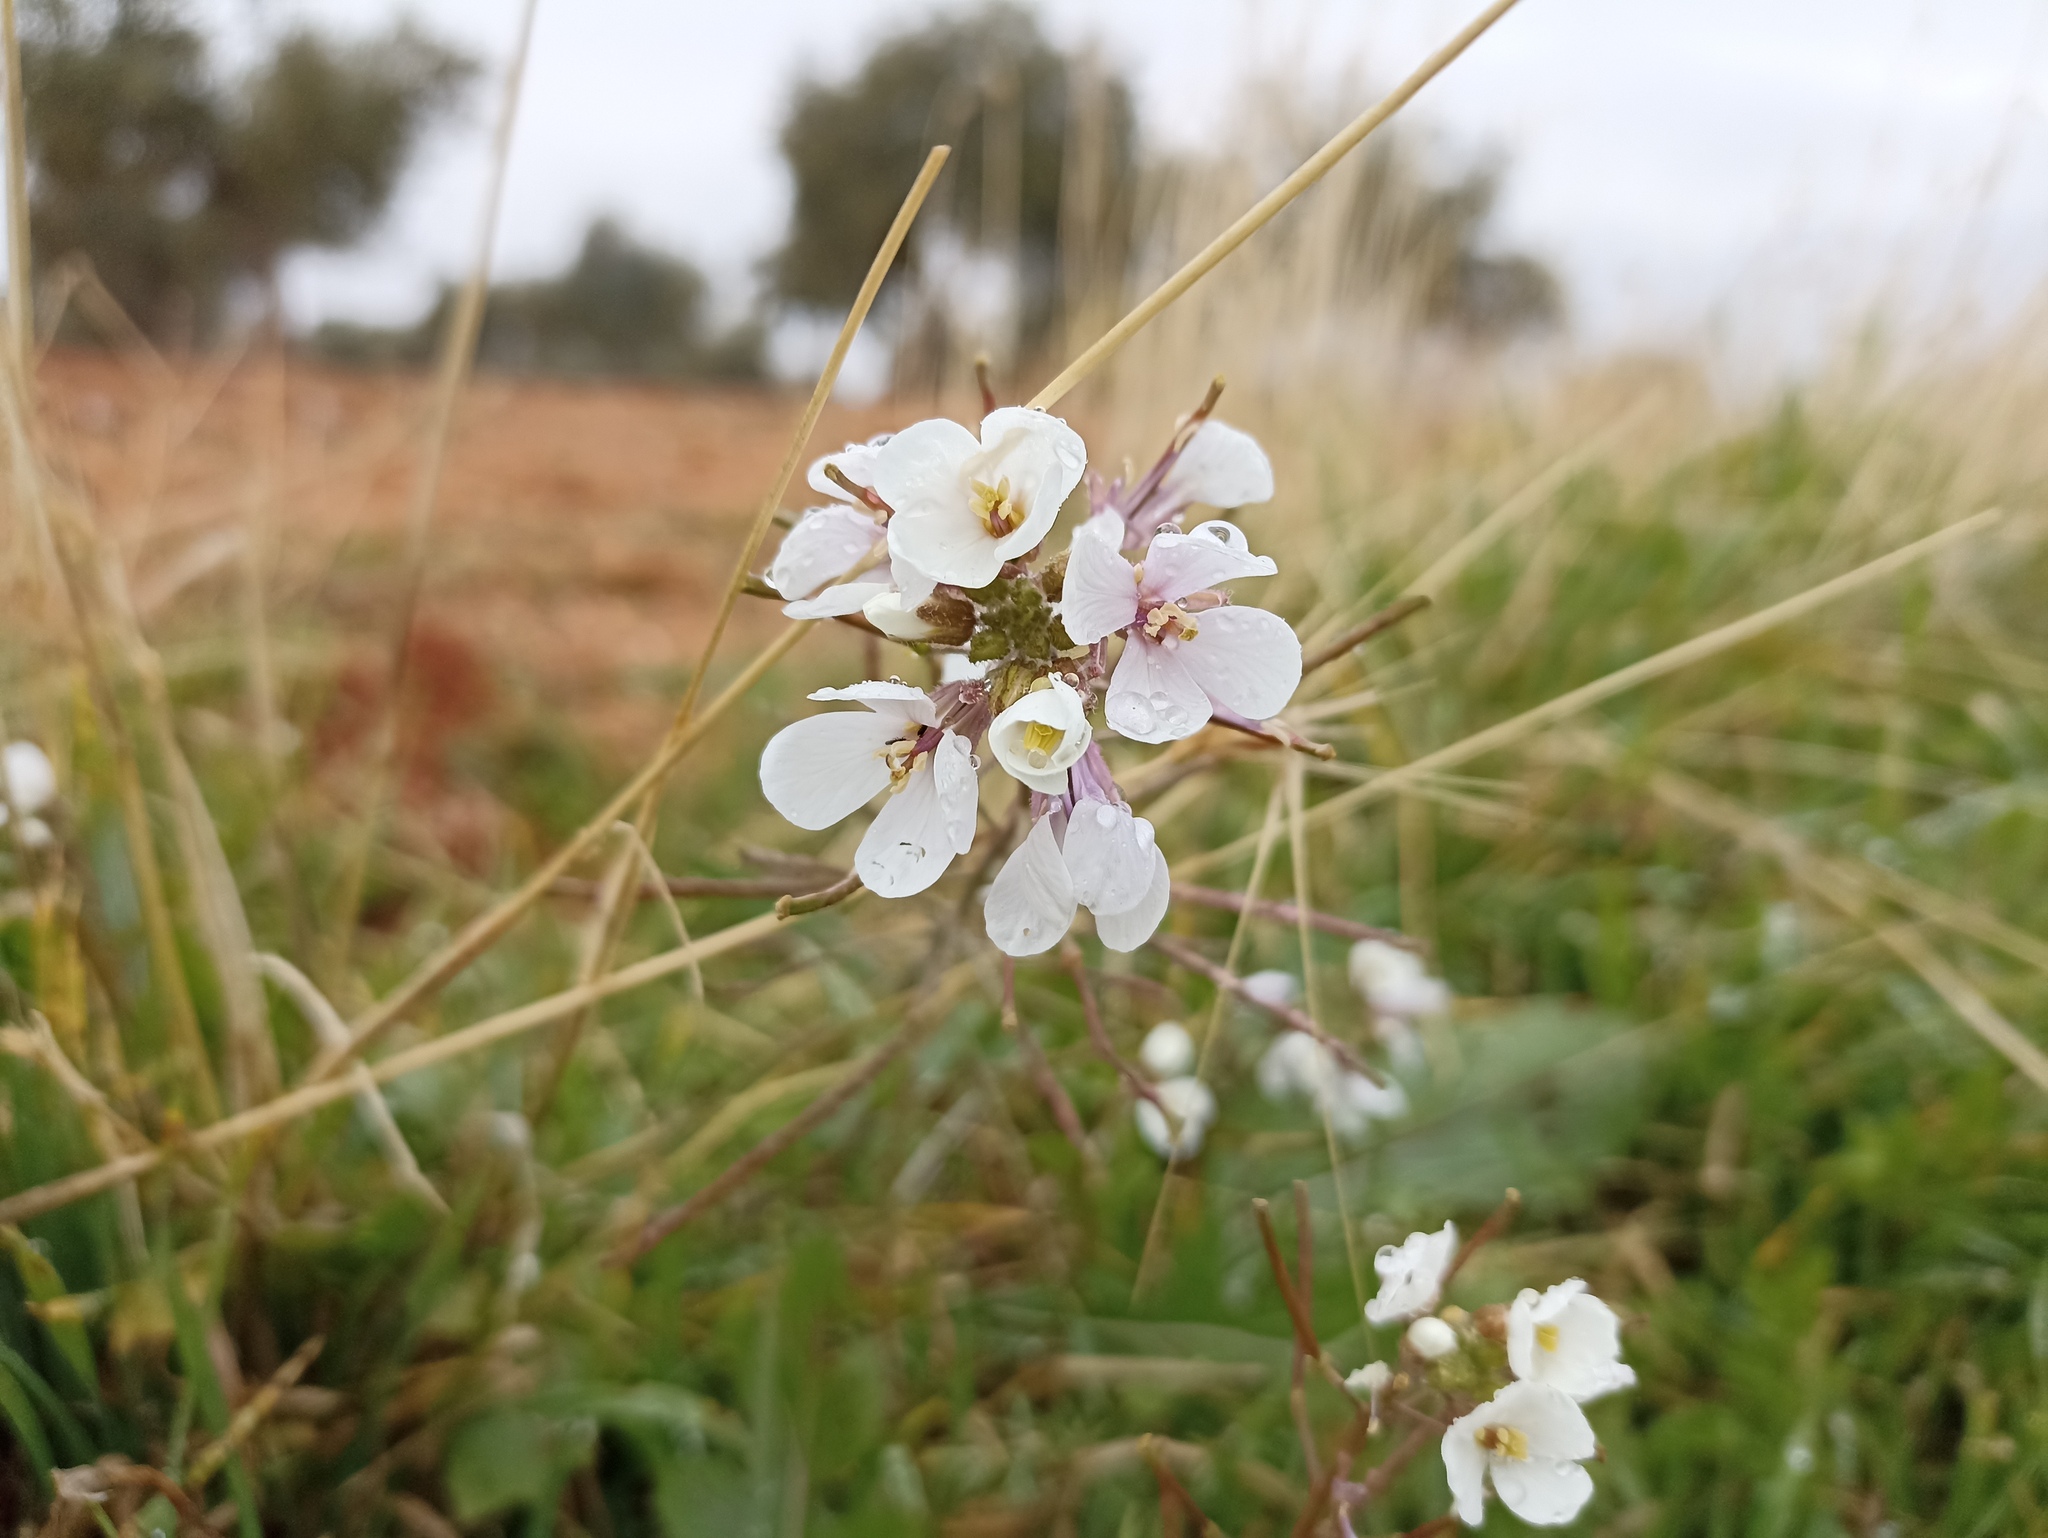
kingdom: Plantae
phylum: Tracheophyta
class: Magnoliopsida
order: Brassicales
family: Brassicaceae
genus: Diplotaxis
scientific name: Diplotaxis erucoides
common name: White rocket
